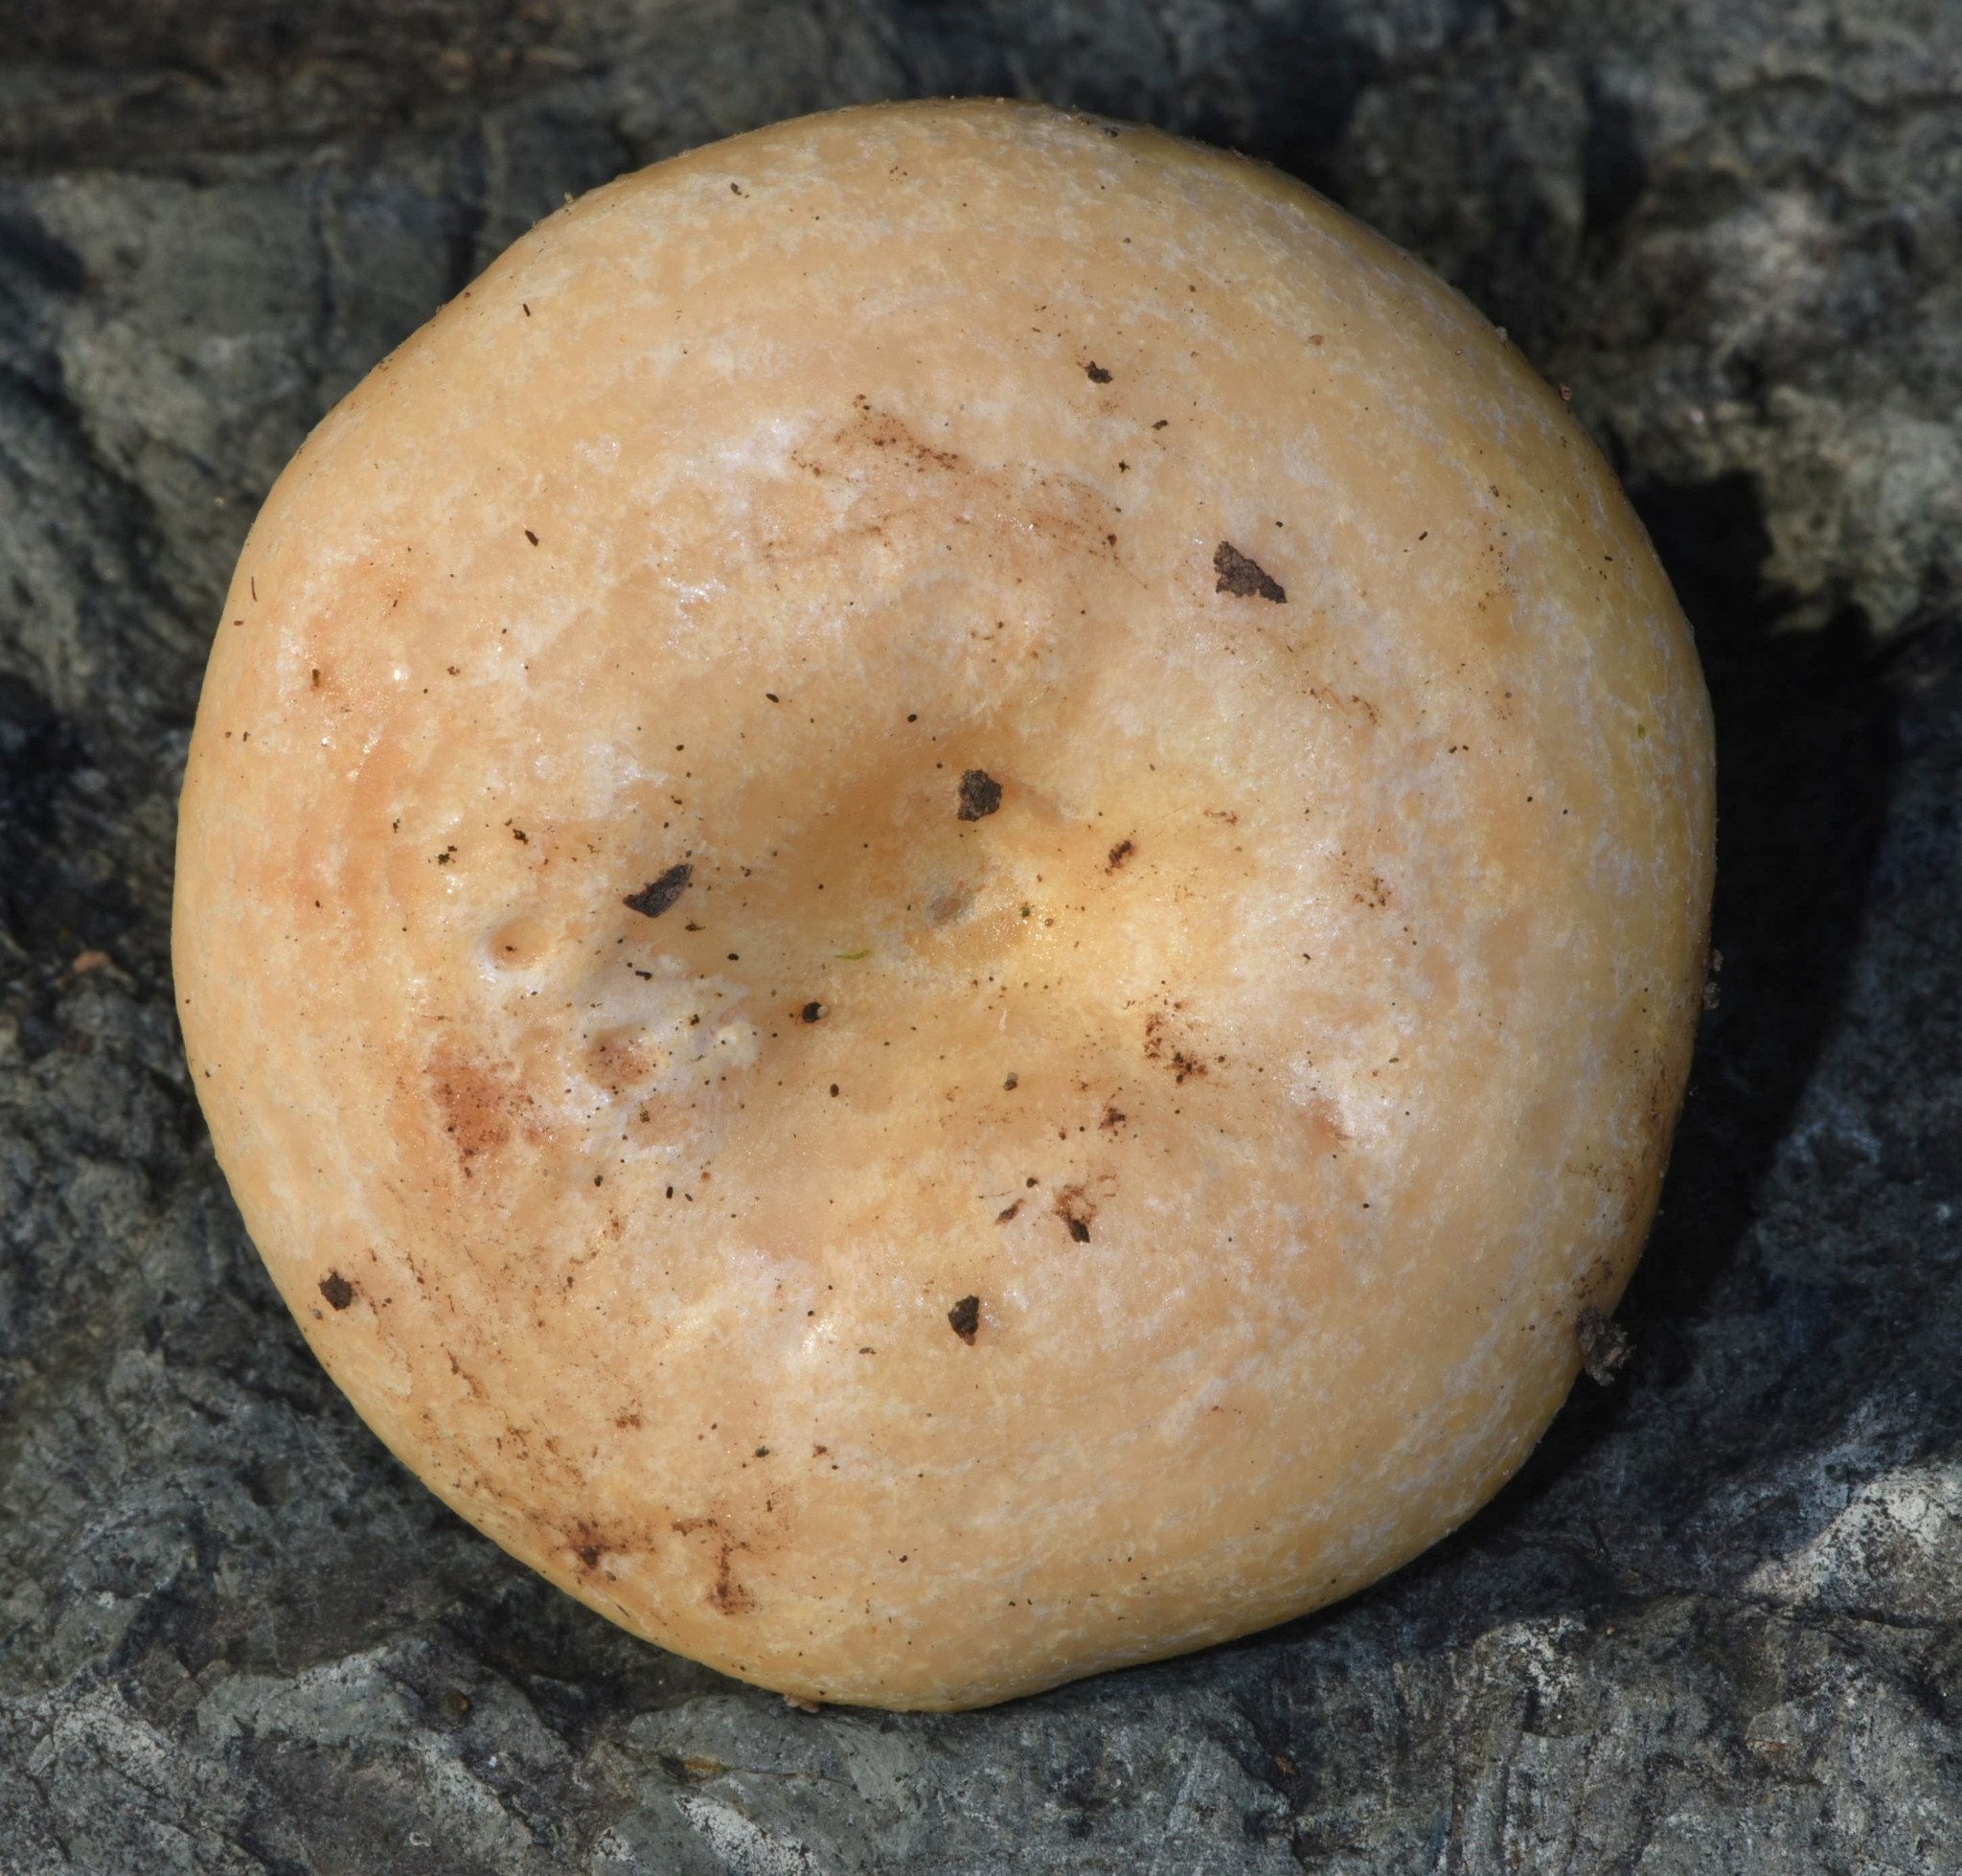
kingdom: Fungi
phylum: Basidiomycota
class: Agaricomycetes
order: Russulales
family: Russulaceae
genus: Lactarius
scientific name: Lactarius alnicola
